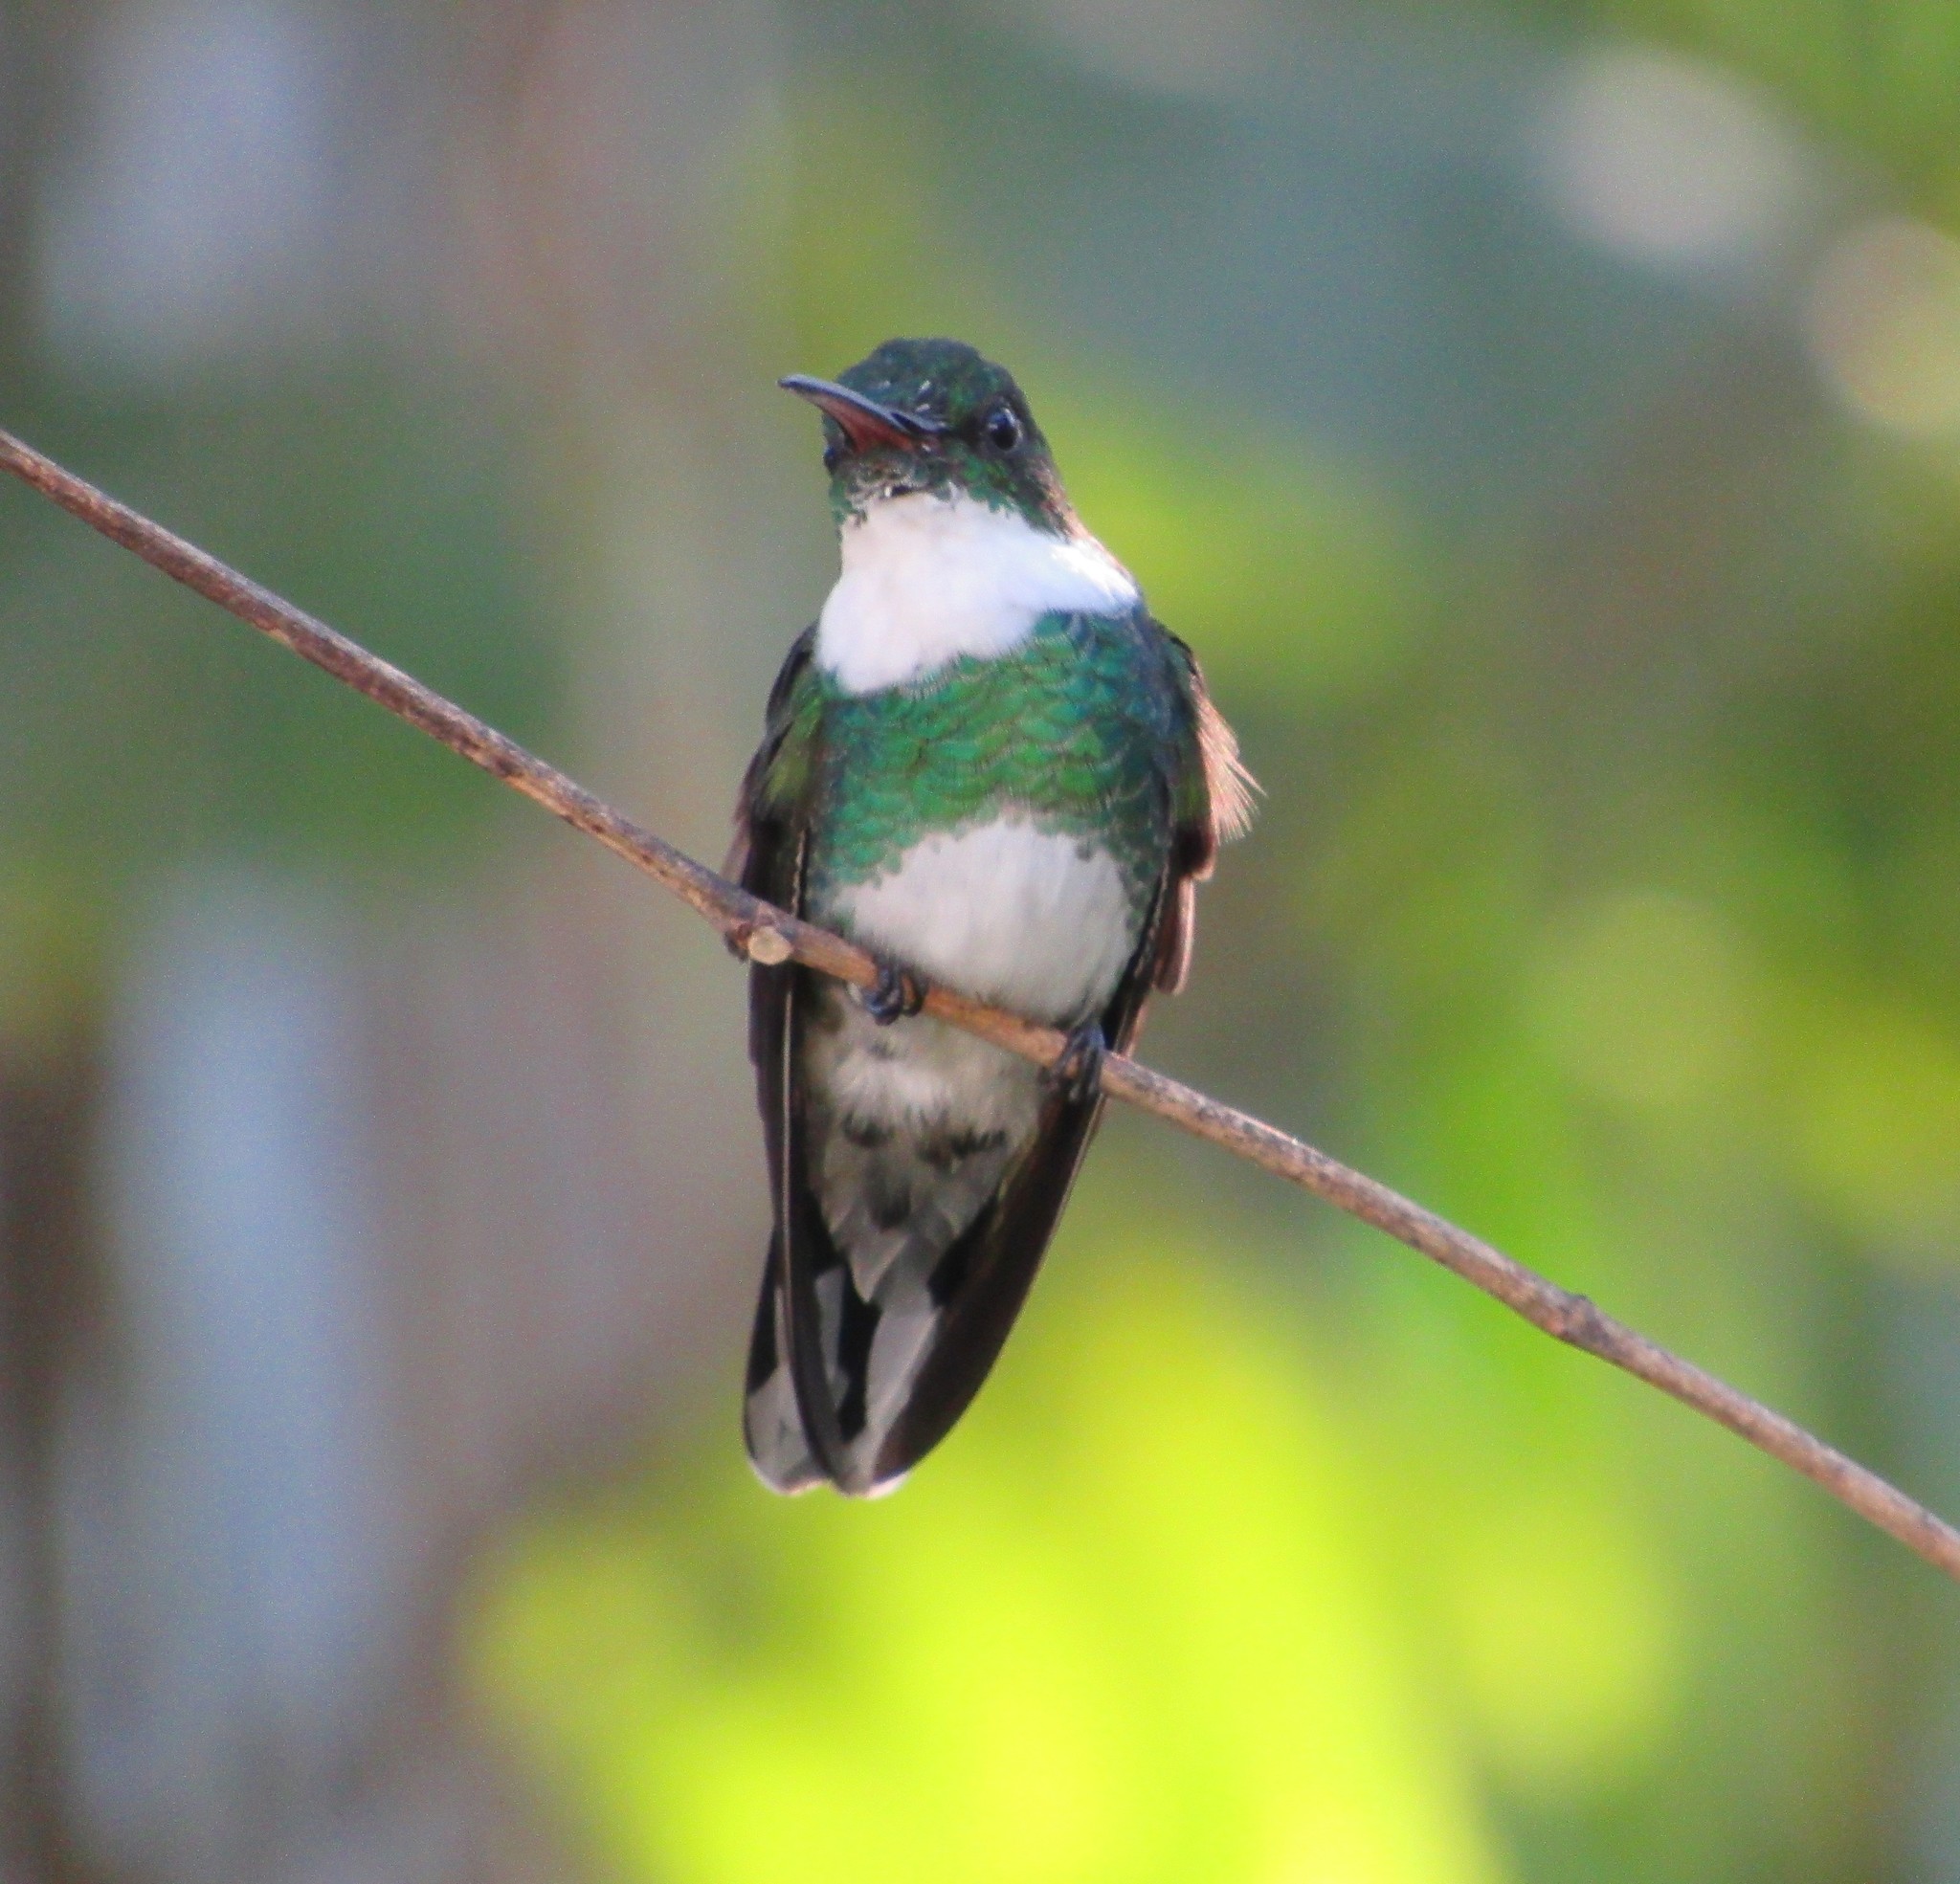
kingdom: Animalia
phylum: Chordata
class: Aves
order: Apodiformes
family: Trochilidae
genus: Leucochloris
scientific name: Leucochloris albicollis
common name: White-throated hummingbird
